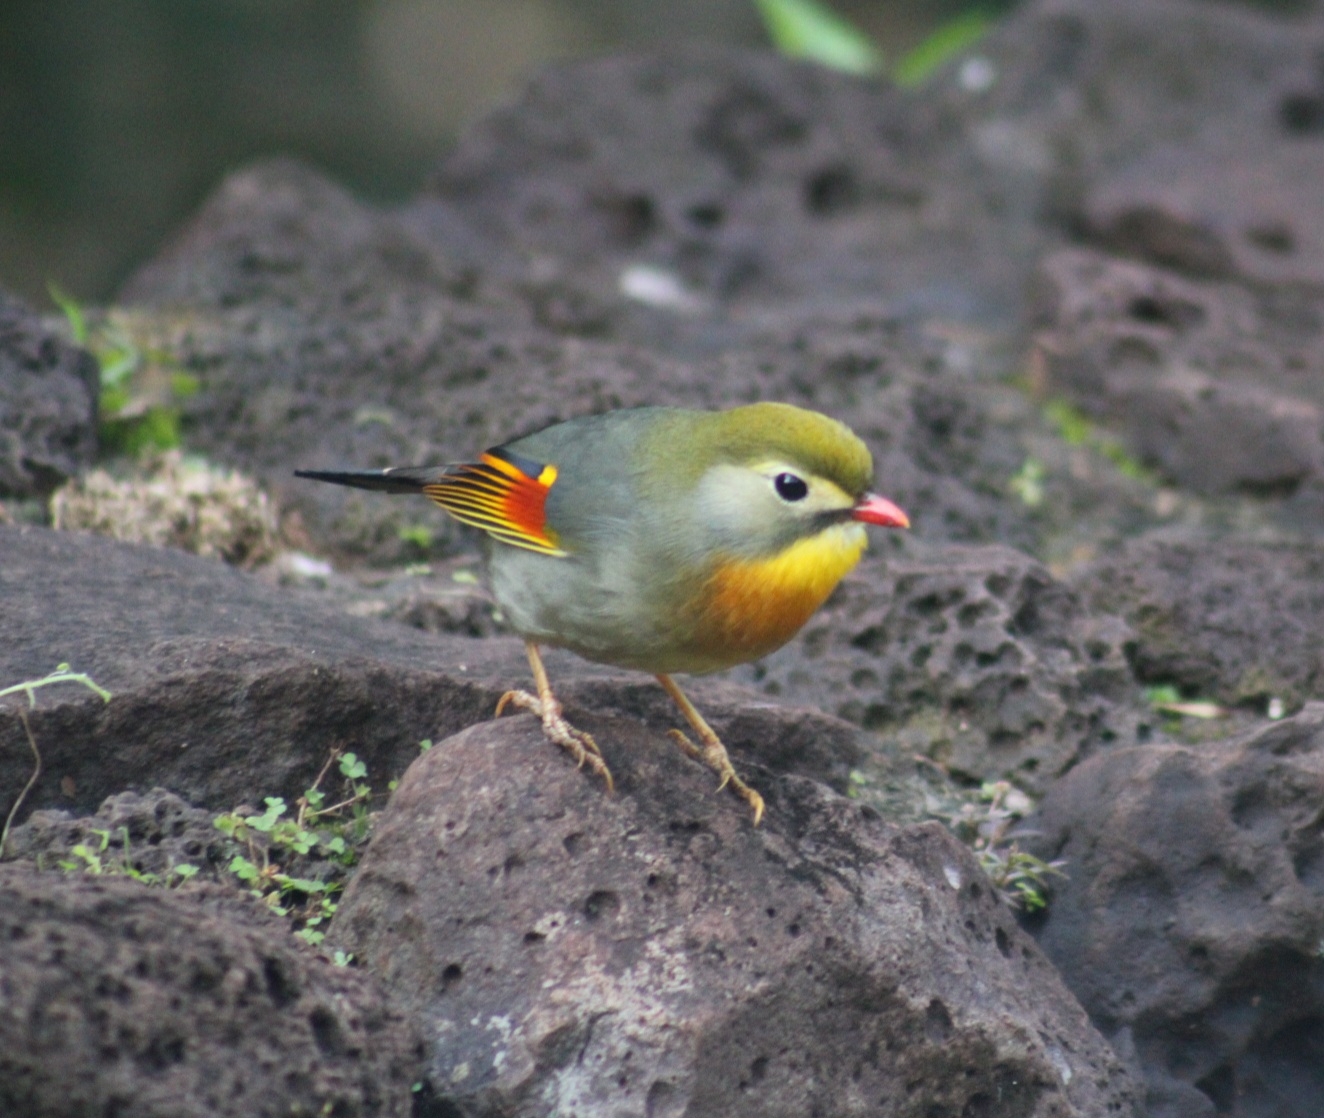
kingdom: Animalia
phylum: Chordata
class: Aves
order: Passeriformes
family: Leiothrichidae
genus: Leiothrix
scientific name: Leiothrix lutea
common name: Red-billed leiothrix
